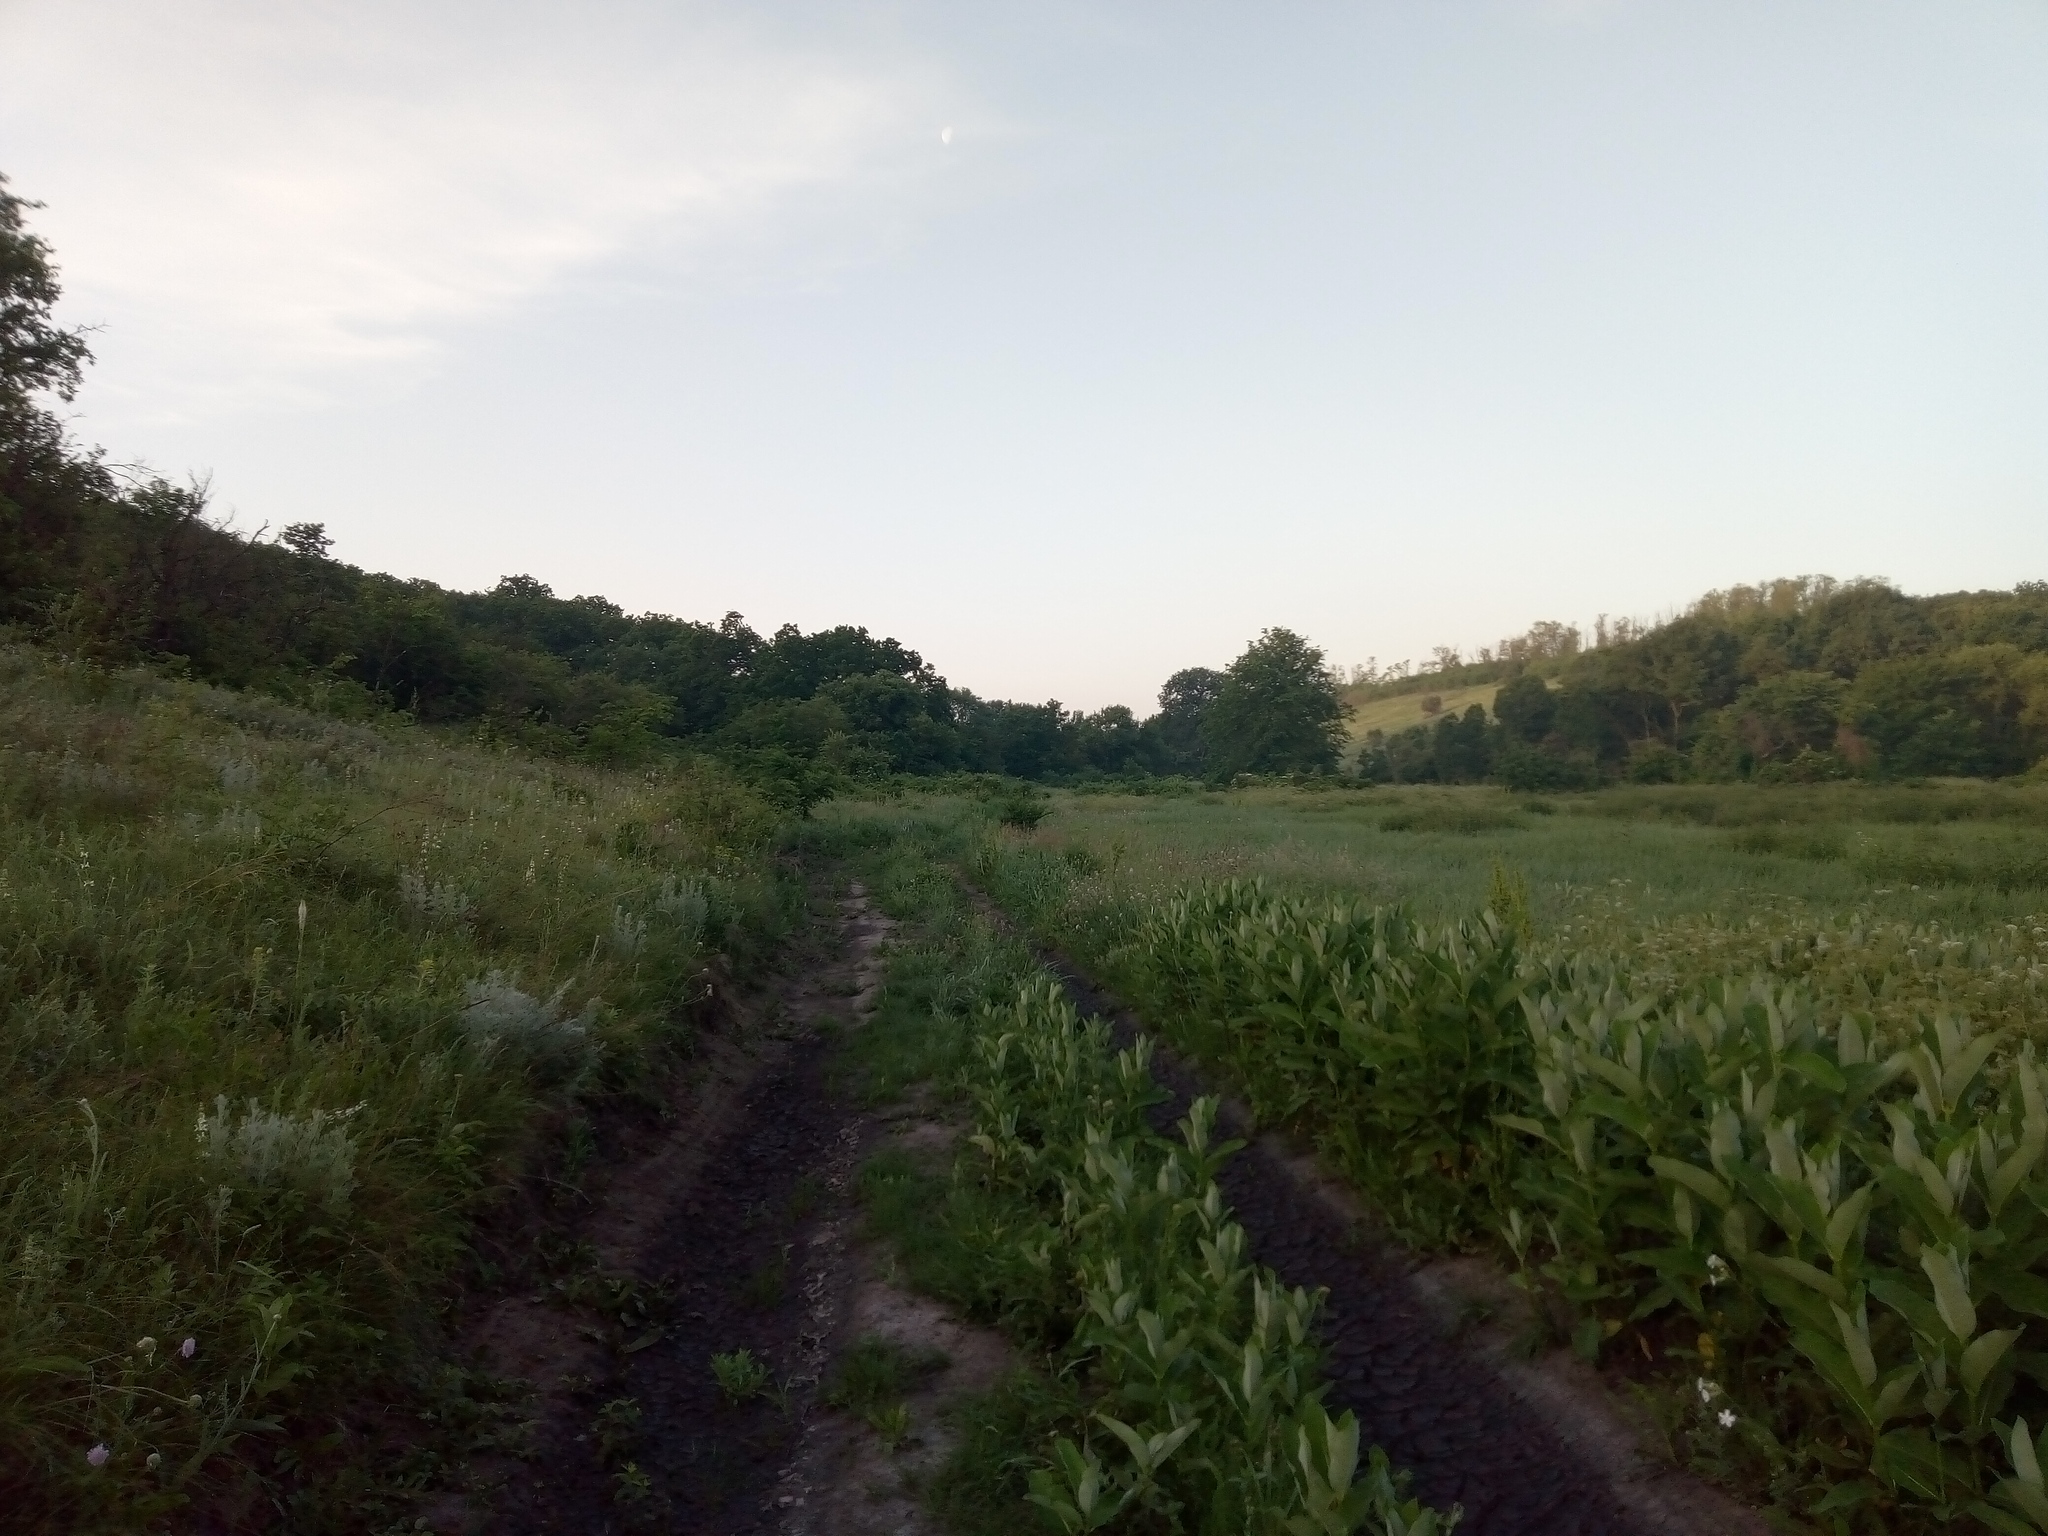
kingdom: Plantae
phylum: Tracheophyta
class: Magnoliopsida
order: Gentianales
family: Apocynaceae
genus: Asclepias
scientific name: Asclepias syriaca
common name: Common milkweed
